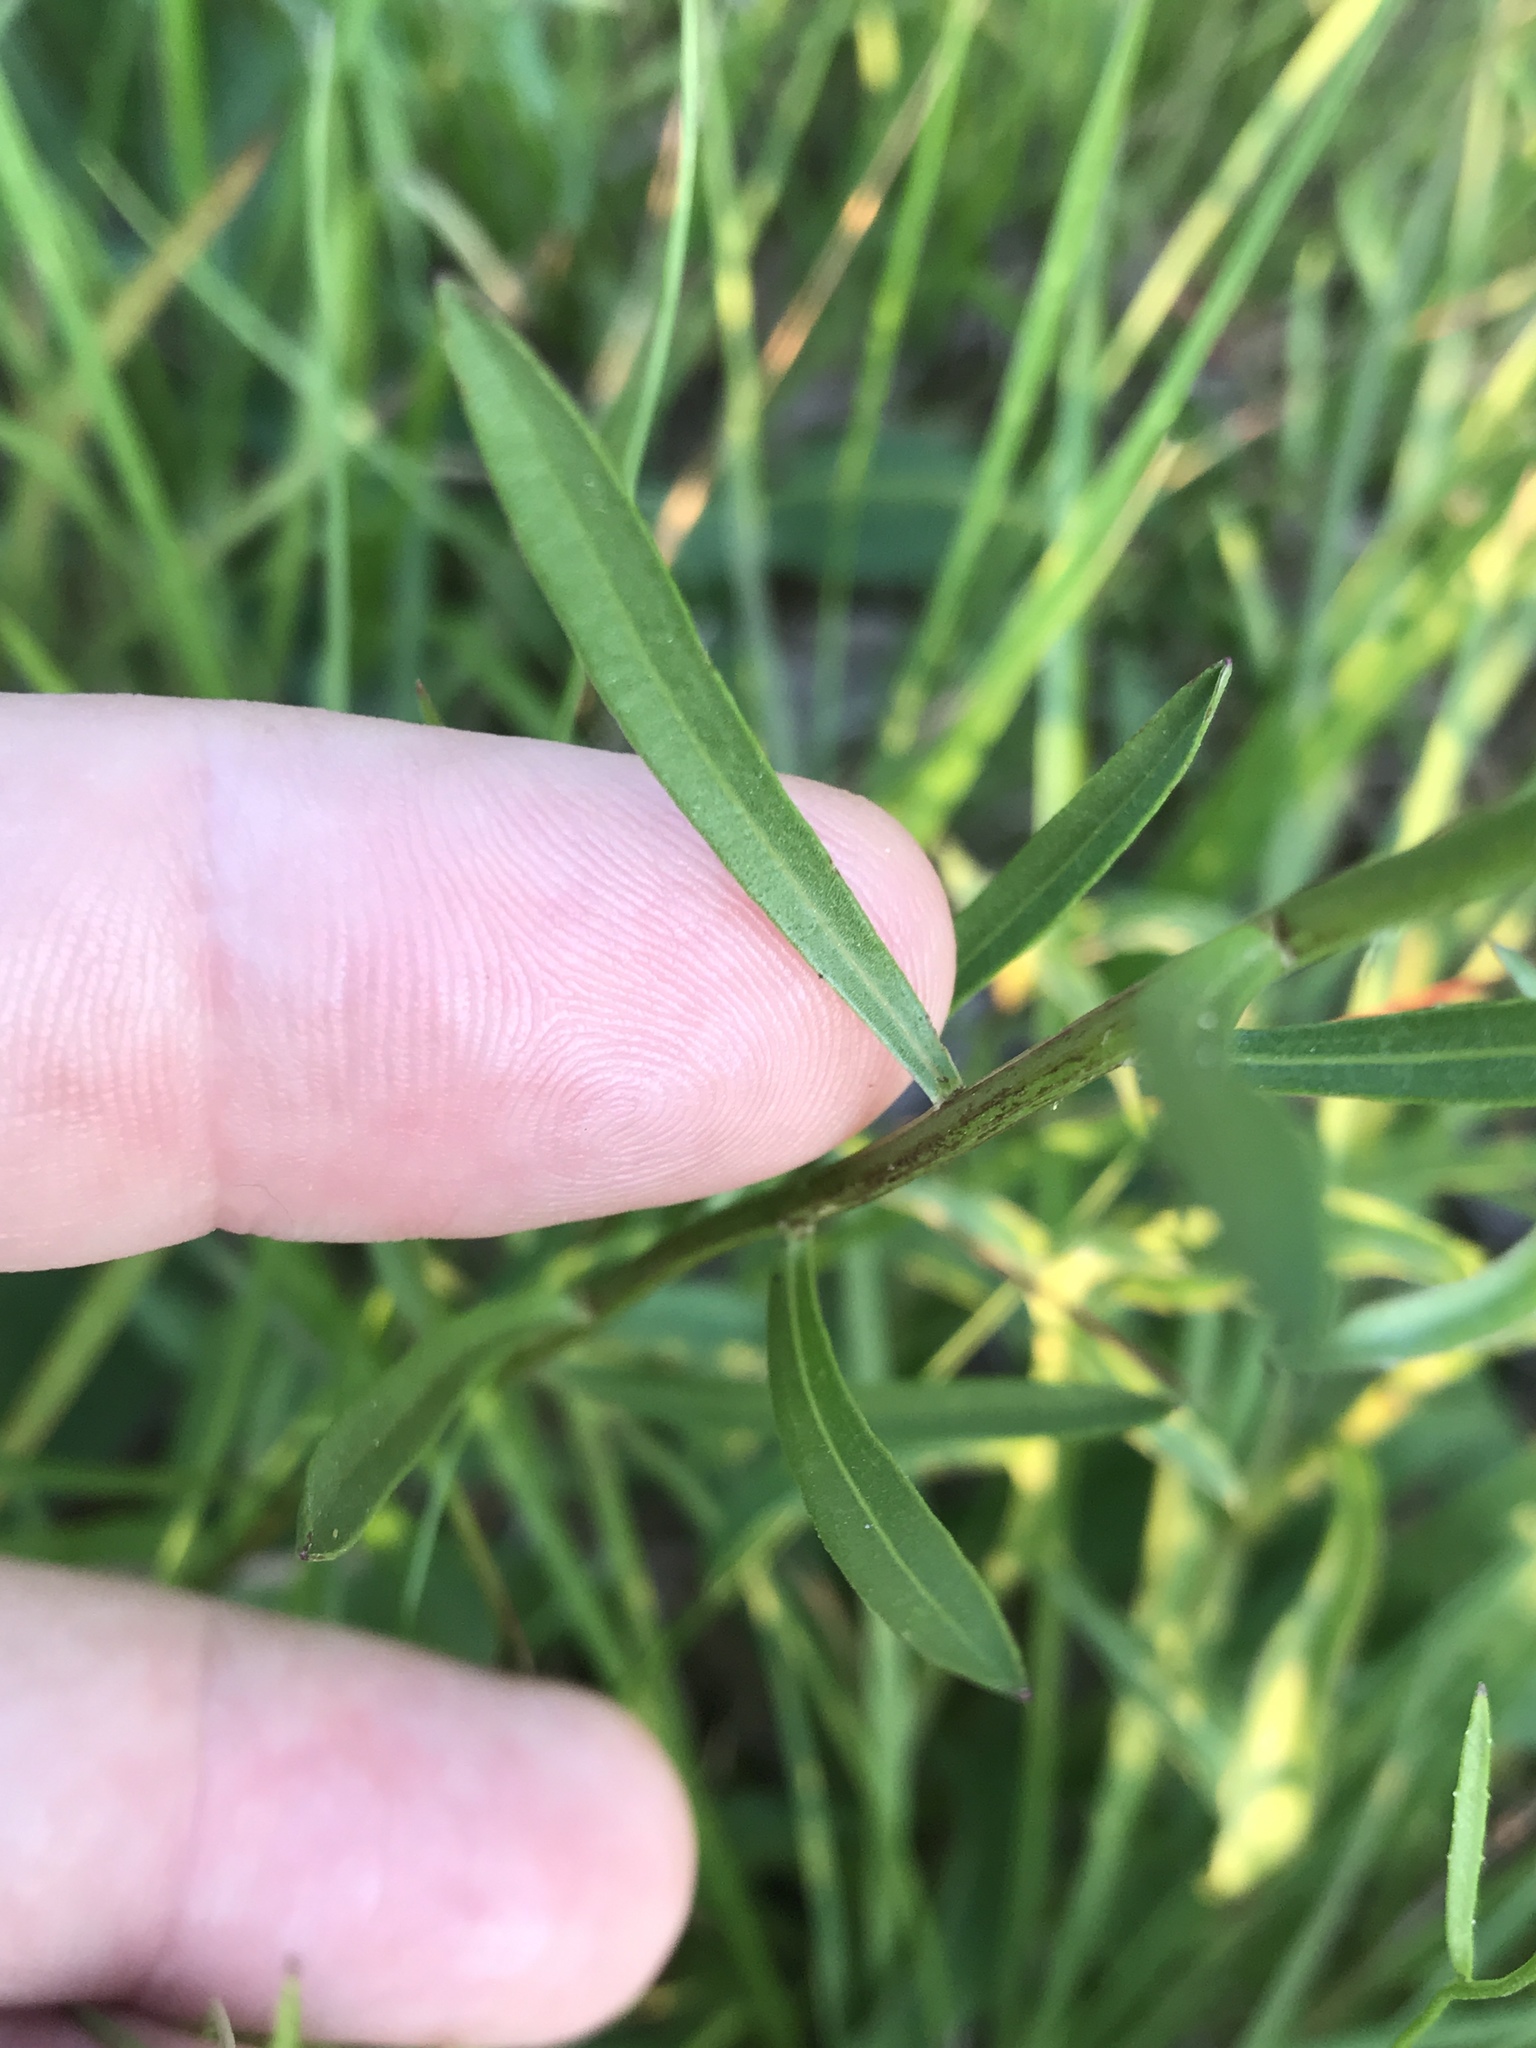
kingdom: Plantae
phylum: Tracheophyta
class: Magnoliopsida
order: Asterales
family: Asteraceae
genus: Sericocarpus
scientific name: Sericocarpus linifolius
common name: Narrow-leaf aster
